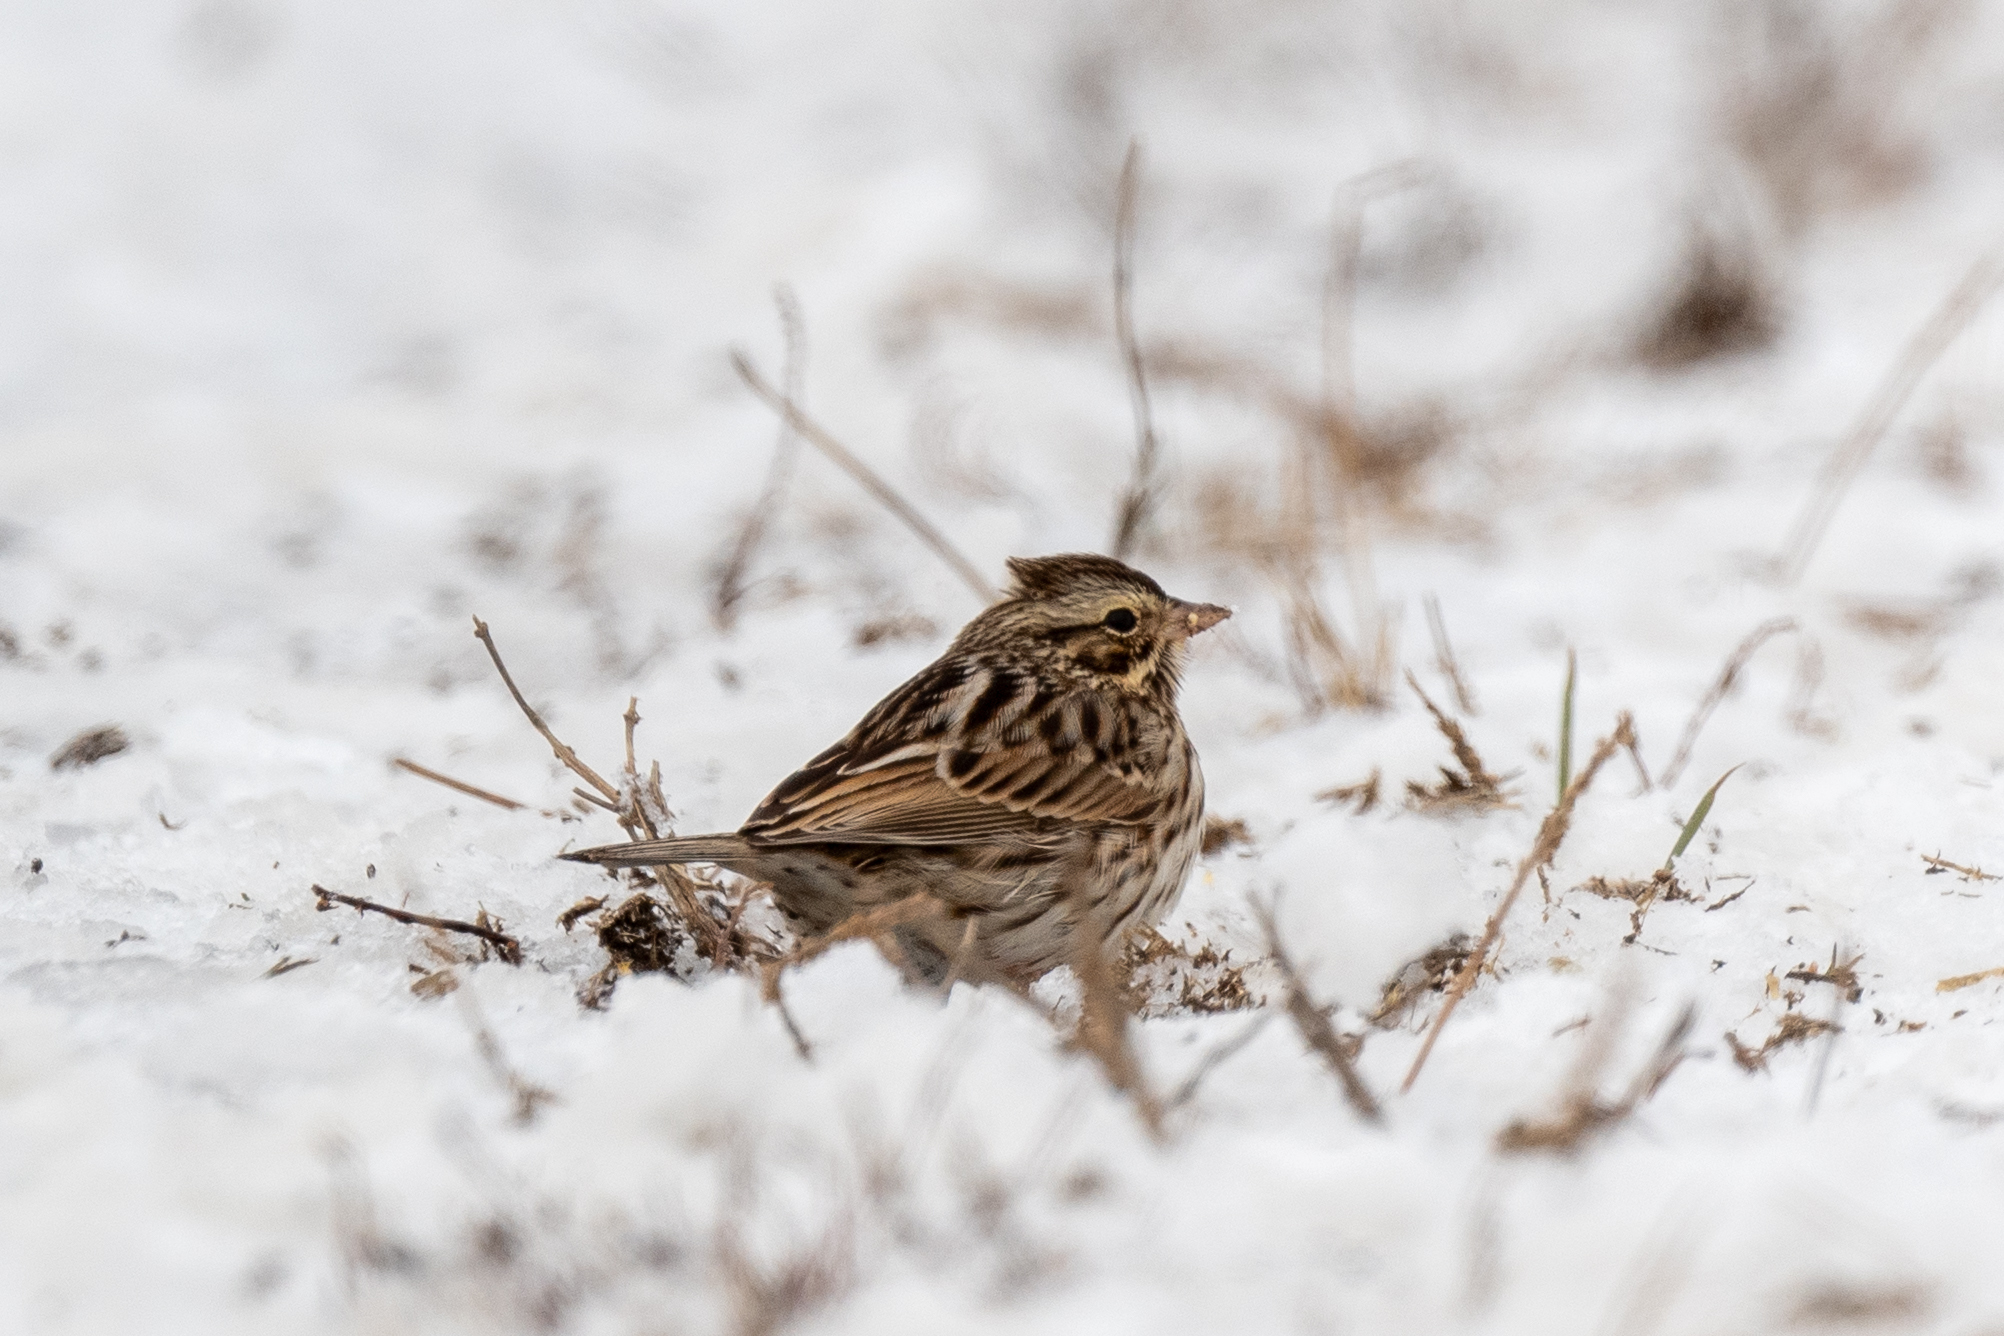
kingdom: Animalia
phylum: Chordata
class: Aves
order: Passeriformes
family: Passerellidae
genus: Passerculus
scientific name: Passerculus sandwichensis
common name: Savannah sparrow
